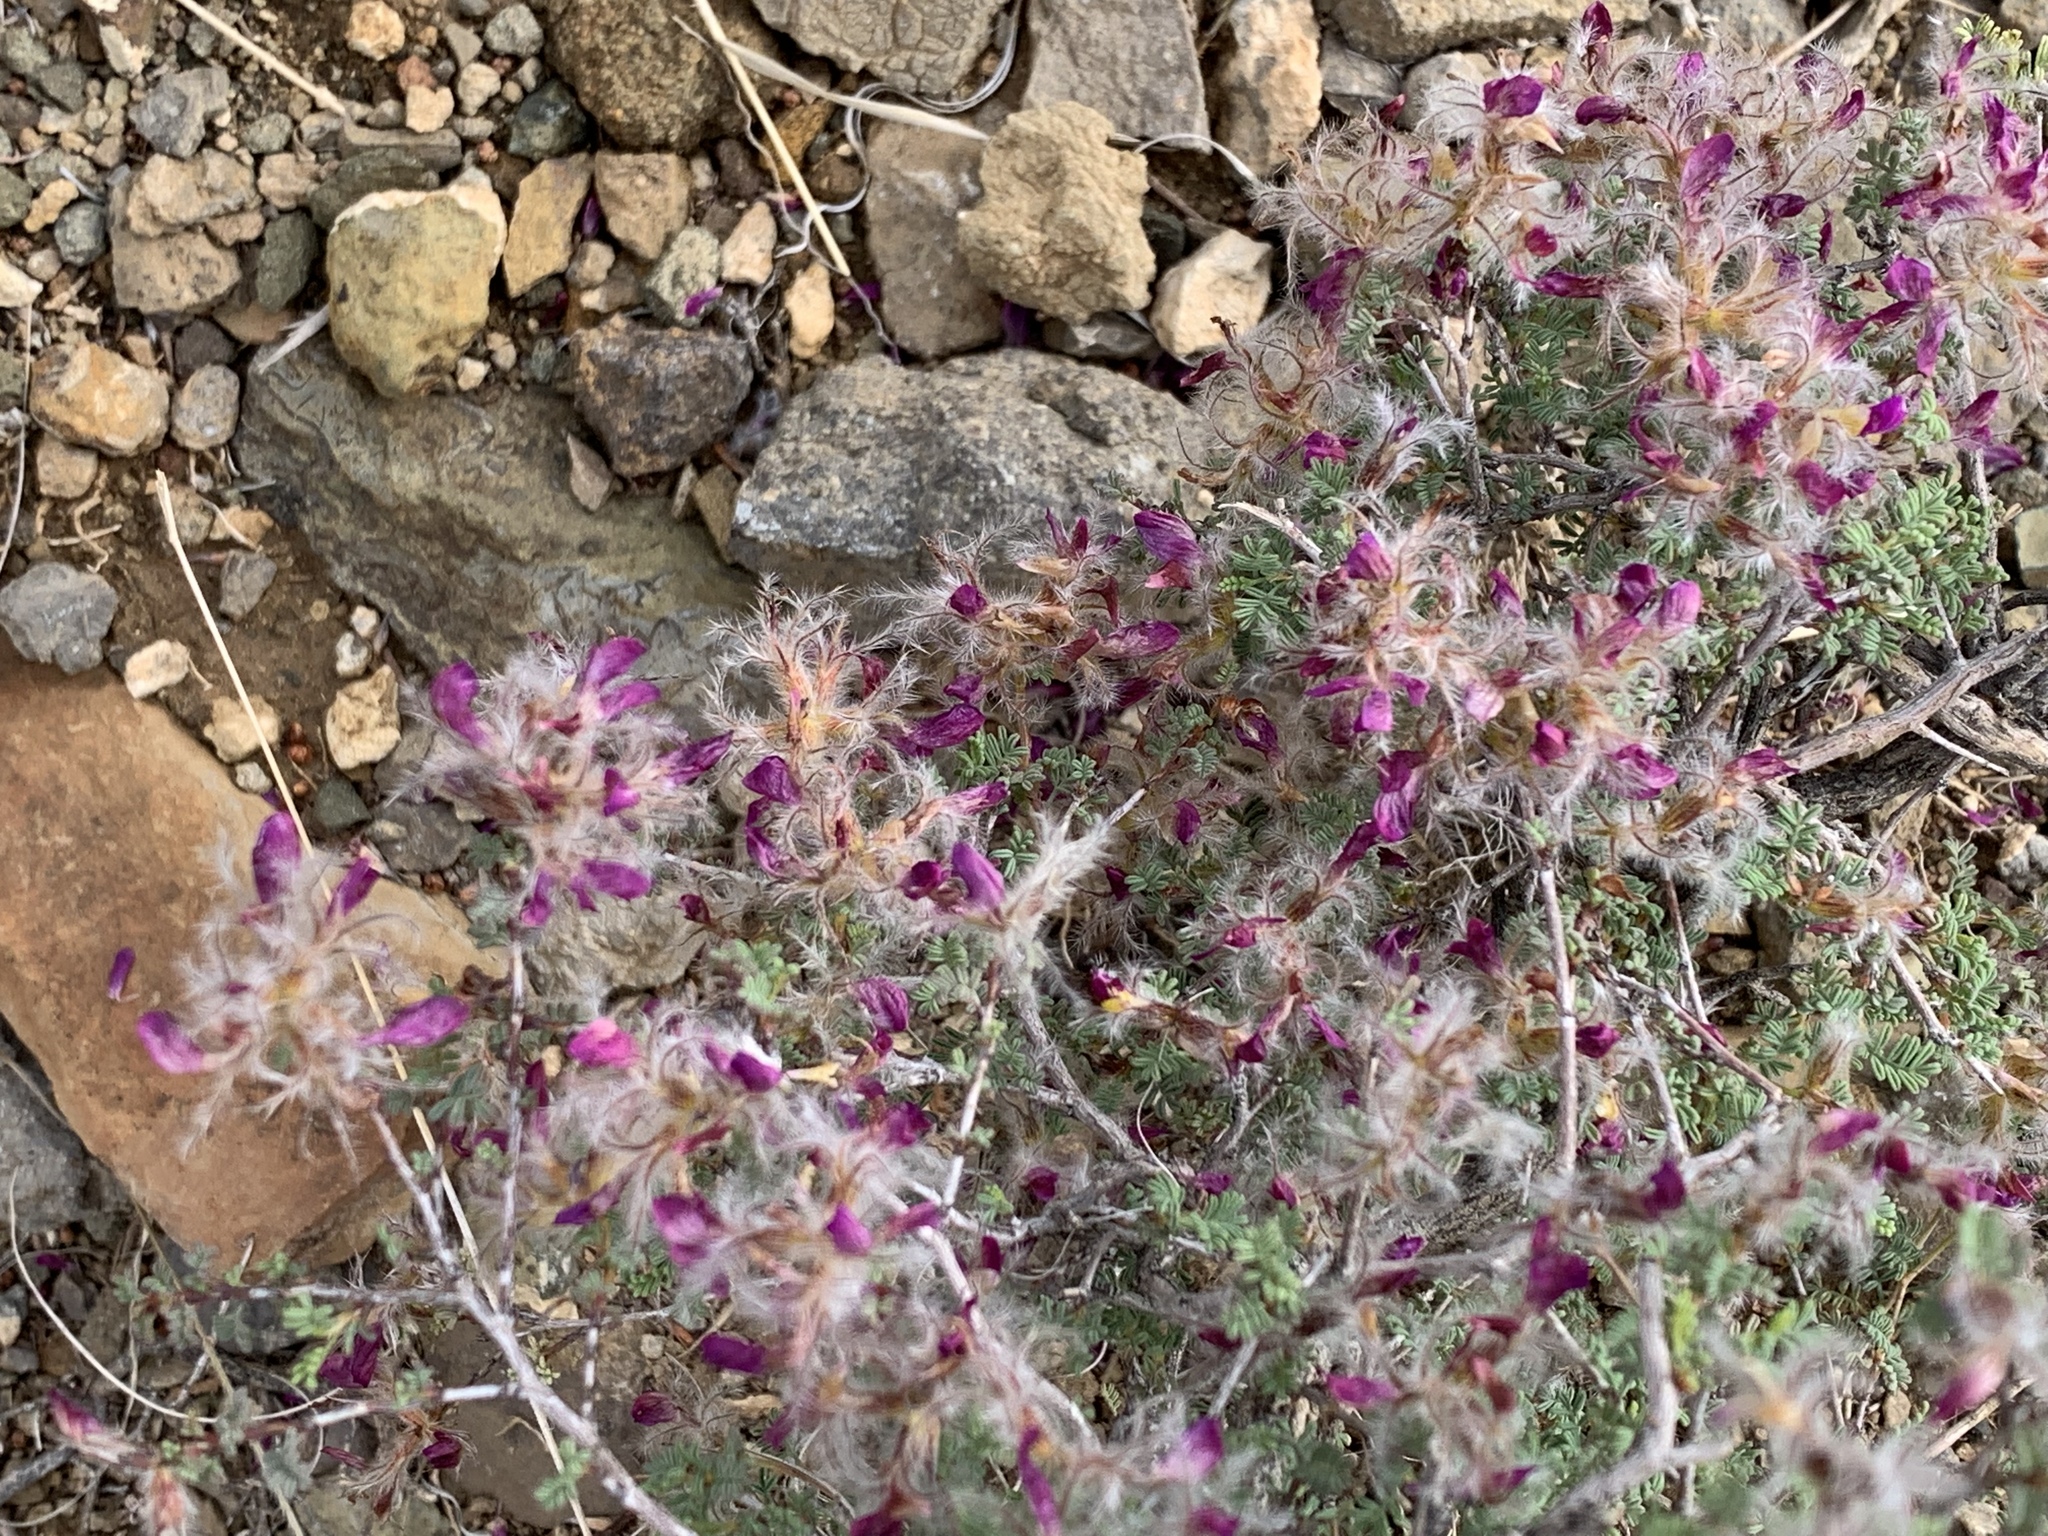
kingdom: Plantae
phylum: Tracheophyta
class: Magnoliopsida
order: Fabales
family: Fabaceae
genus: Dalea
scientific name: Dalea formosa
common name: Feather-plume dalea
